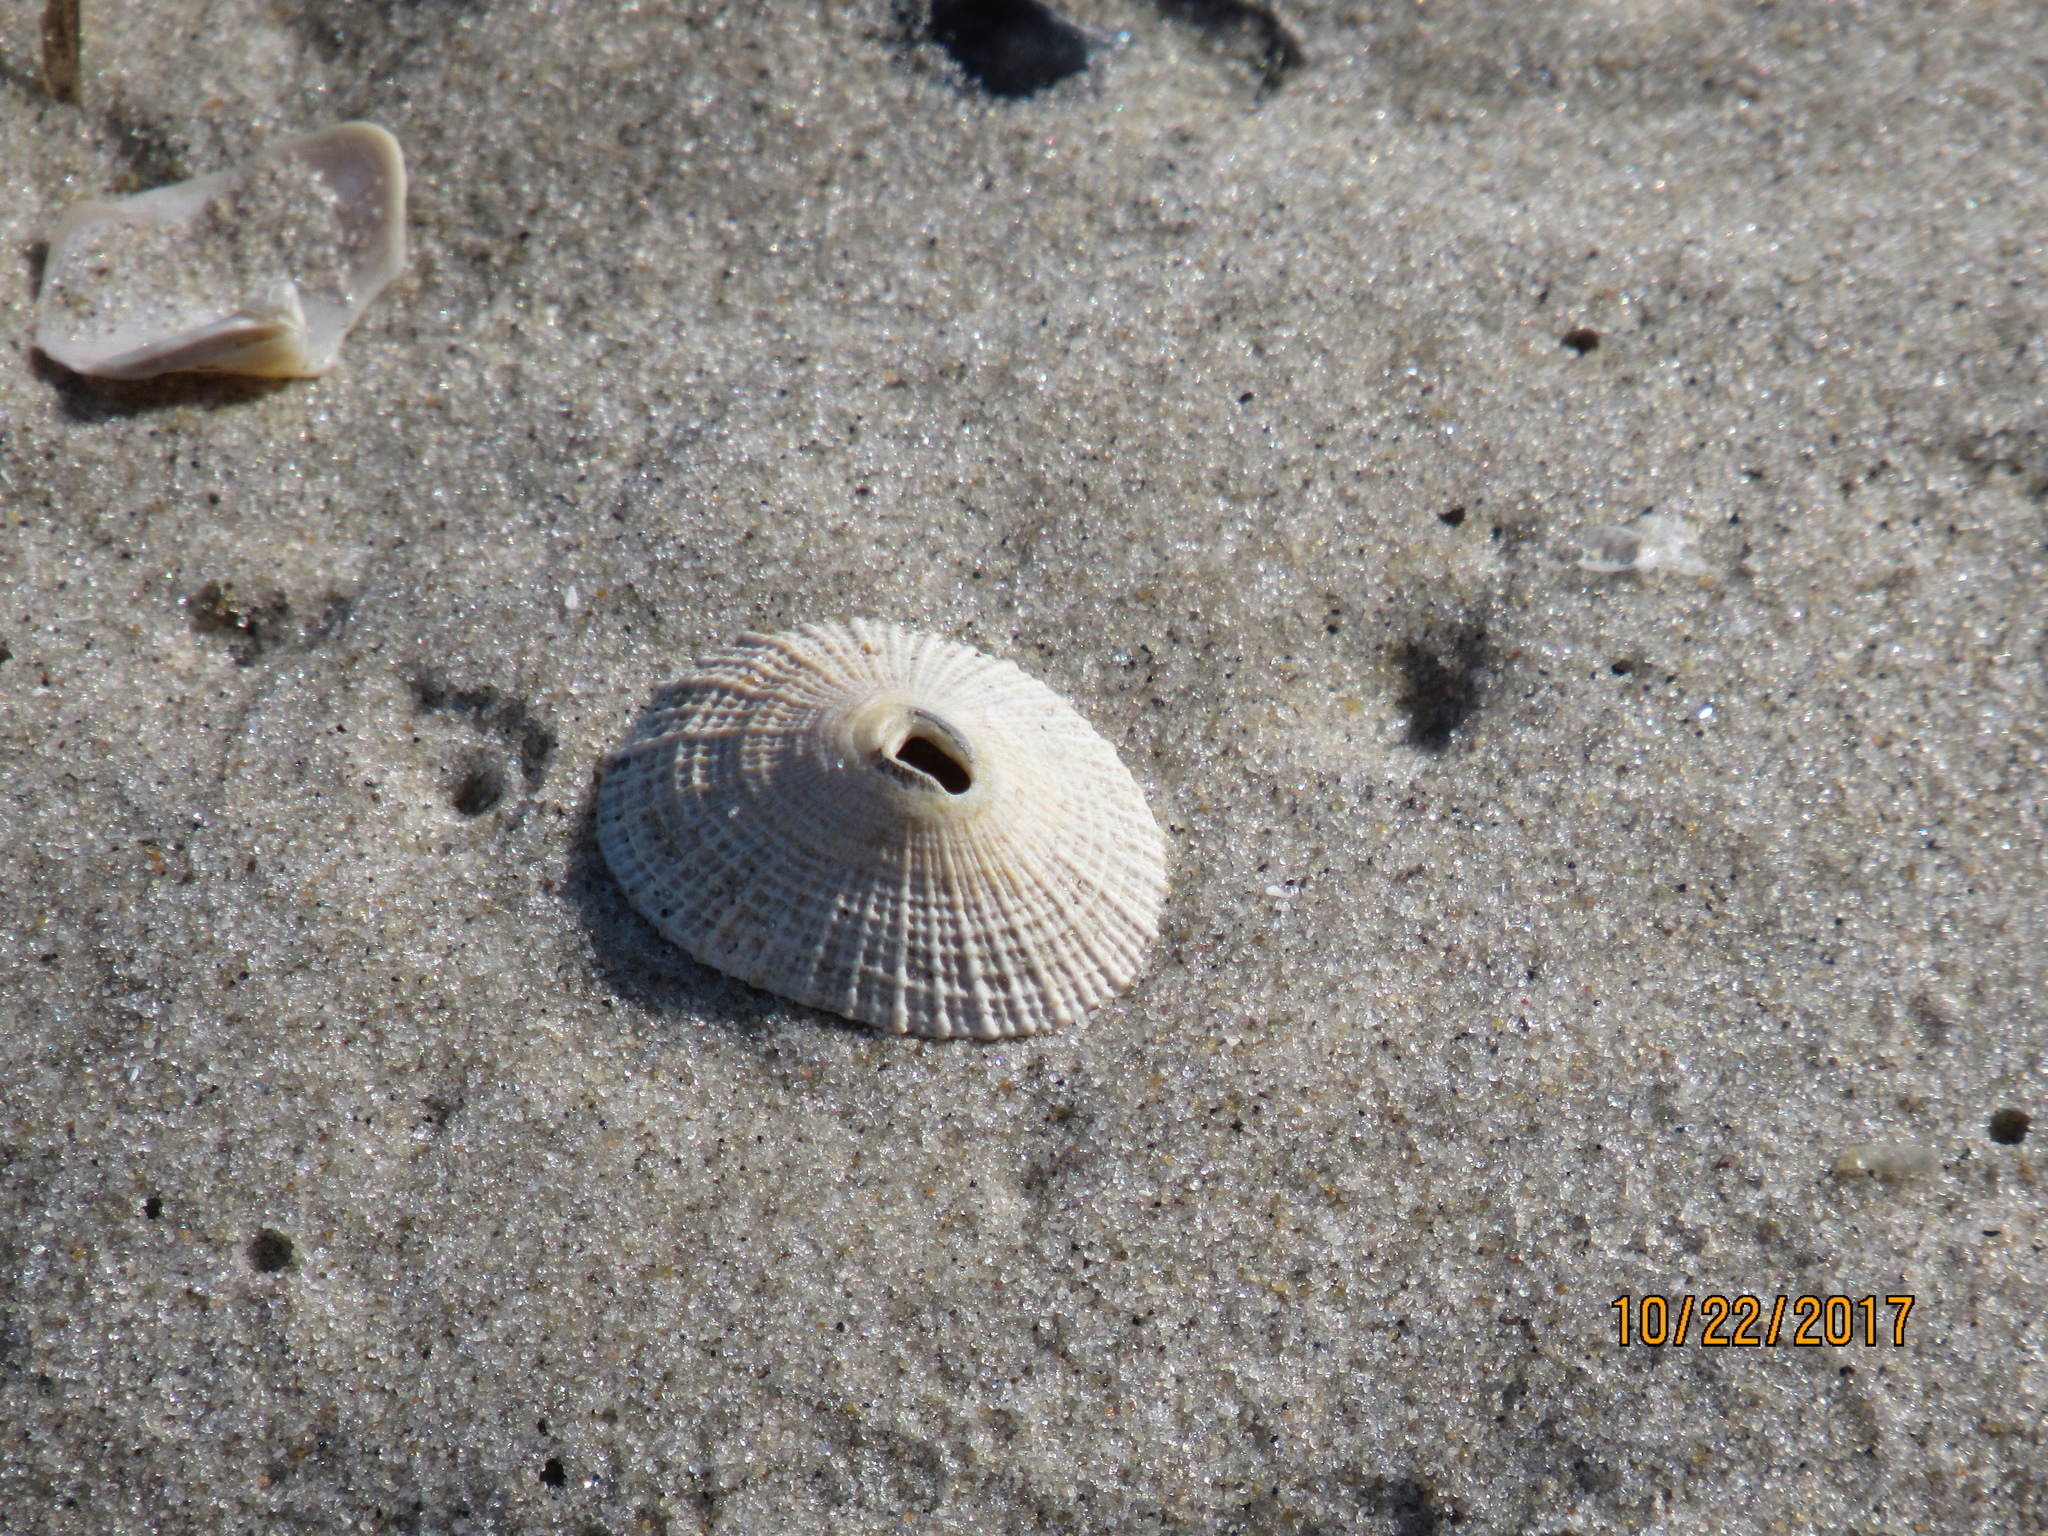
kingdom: Animalia
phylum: Mollusca
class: Gastropoda
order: Lepetellida
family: Fissurellidae
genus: Diodora
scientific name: Diodora cayenensis
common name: Cayenne keyhole limpet
